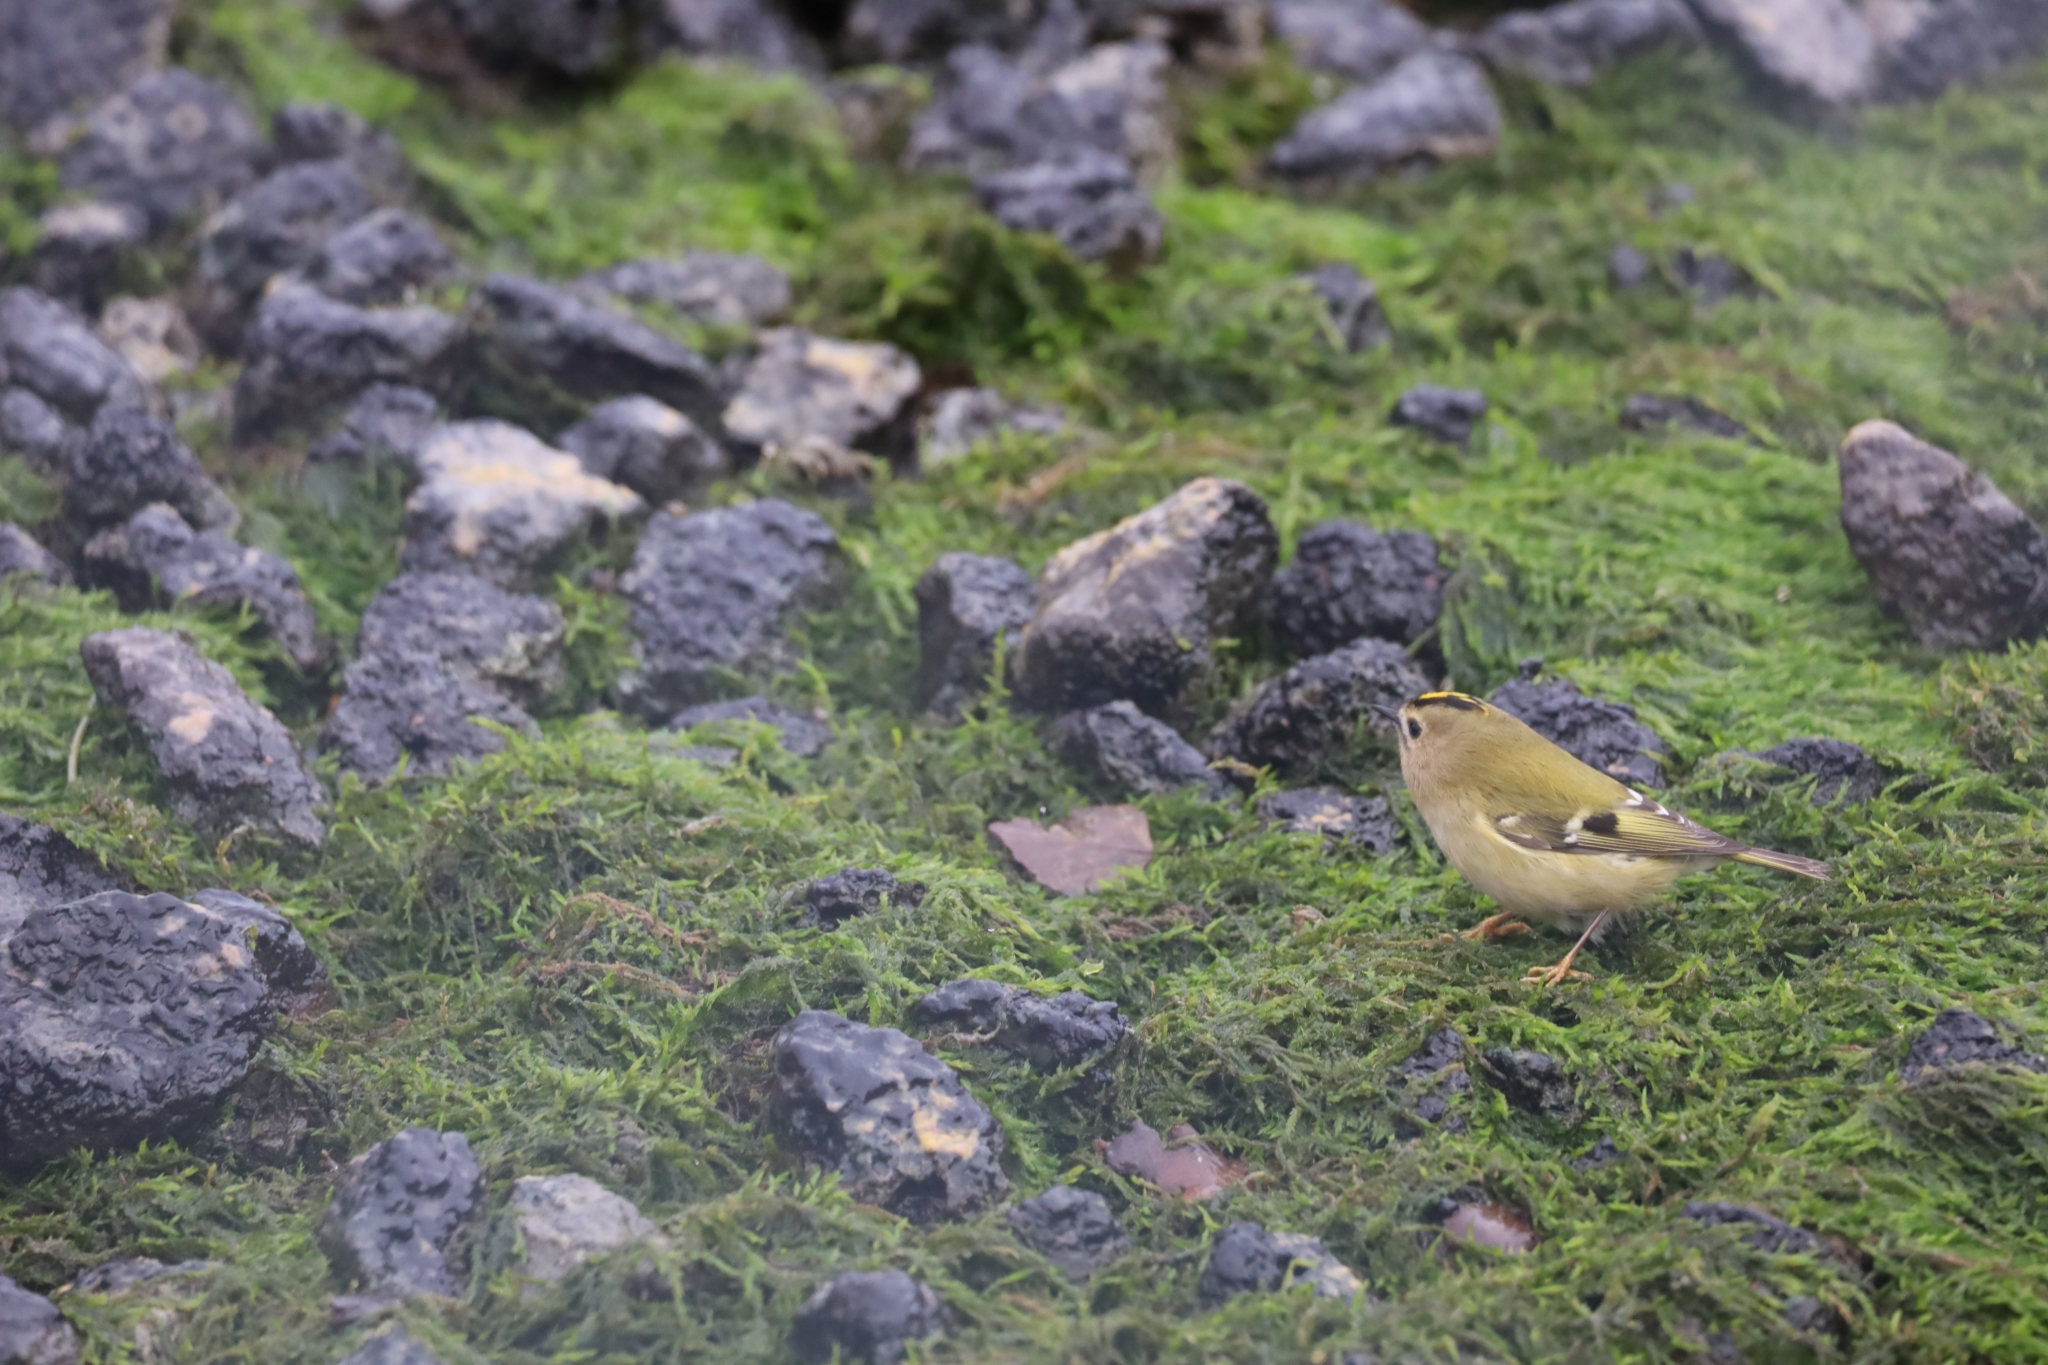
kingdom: Animalia
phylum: Chordata
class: Aves
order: Passeriformes
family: Regulidae
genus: Regulus
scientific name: Regulus regulus
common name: Goldcrest
